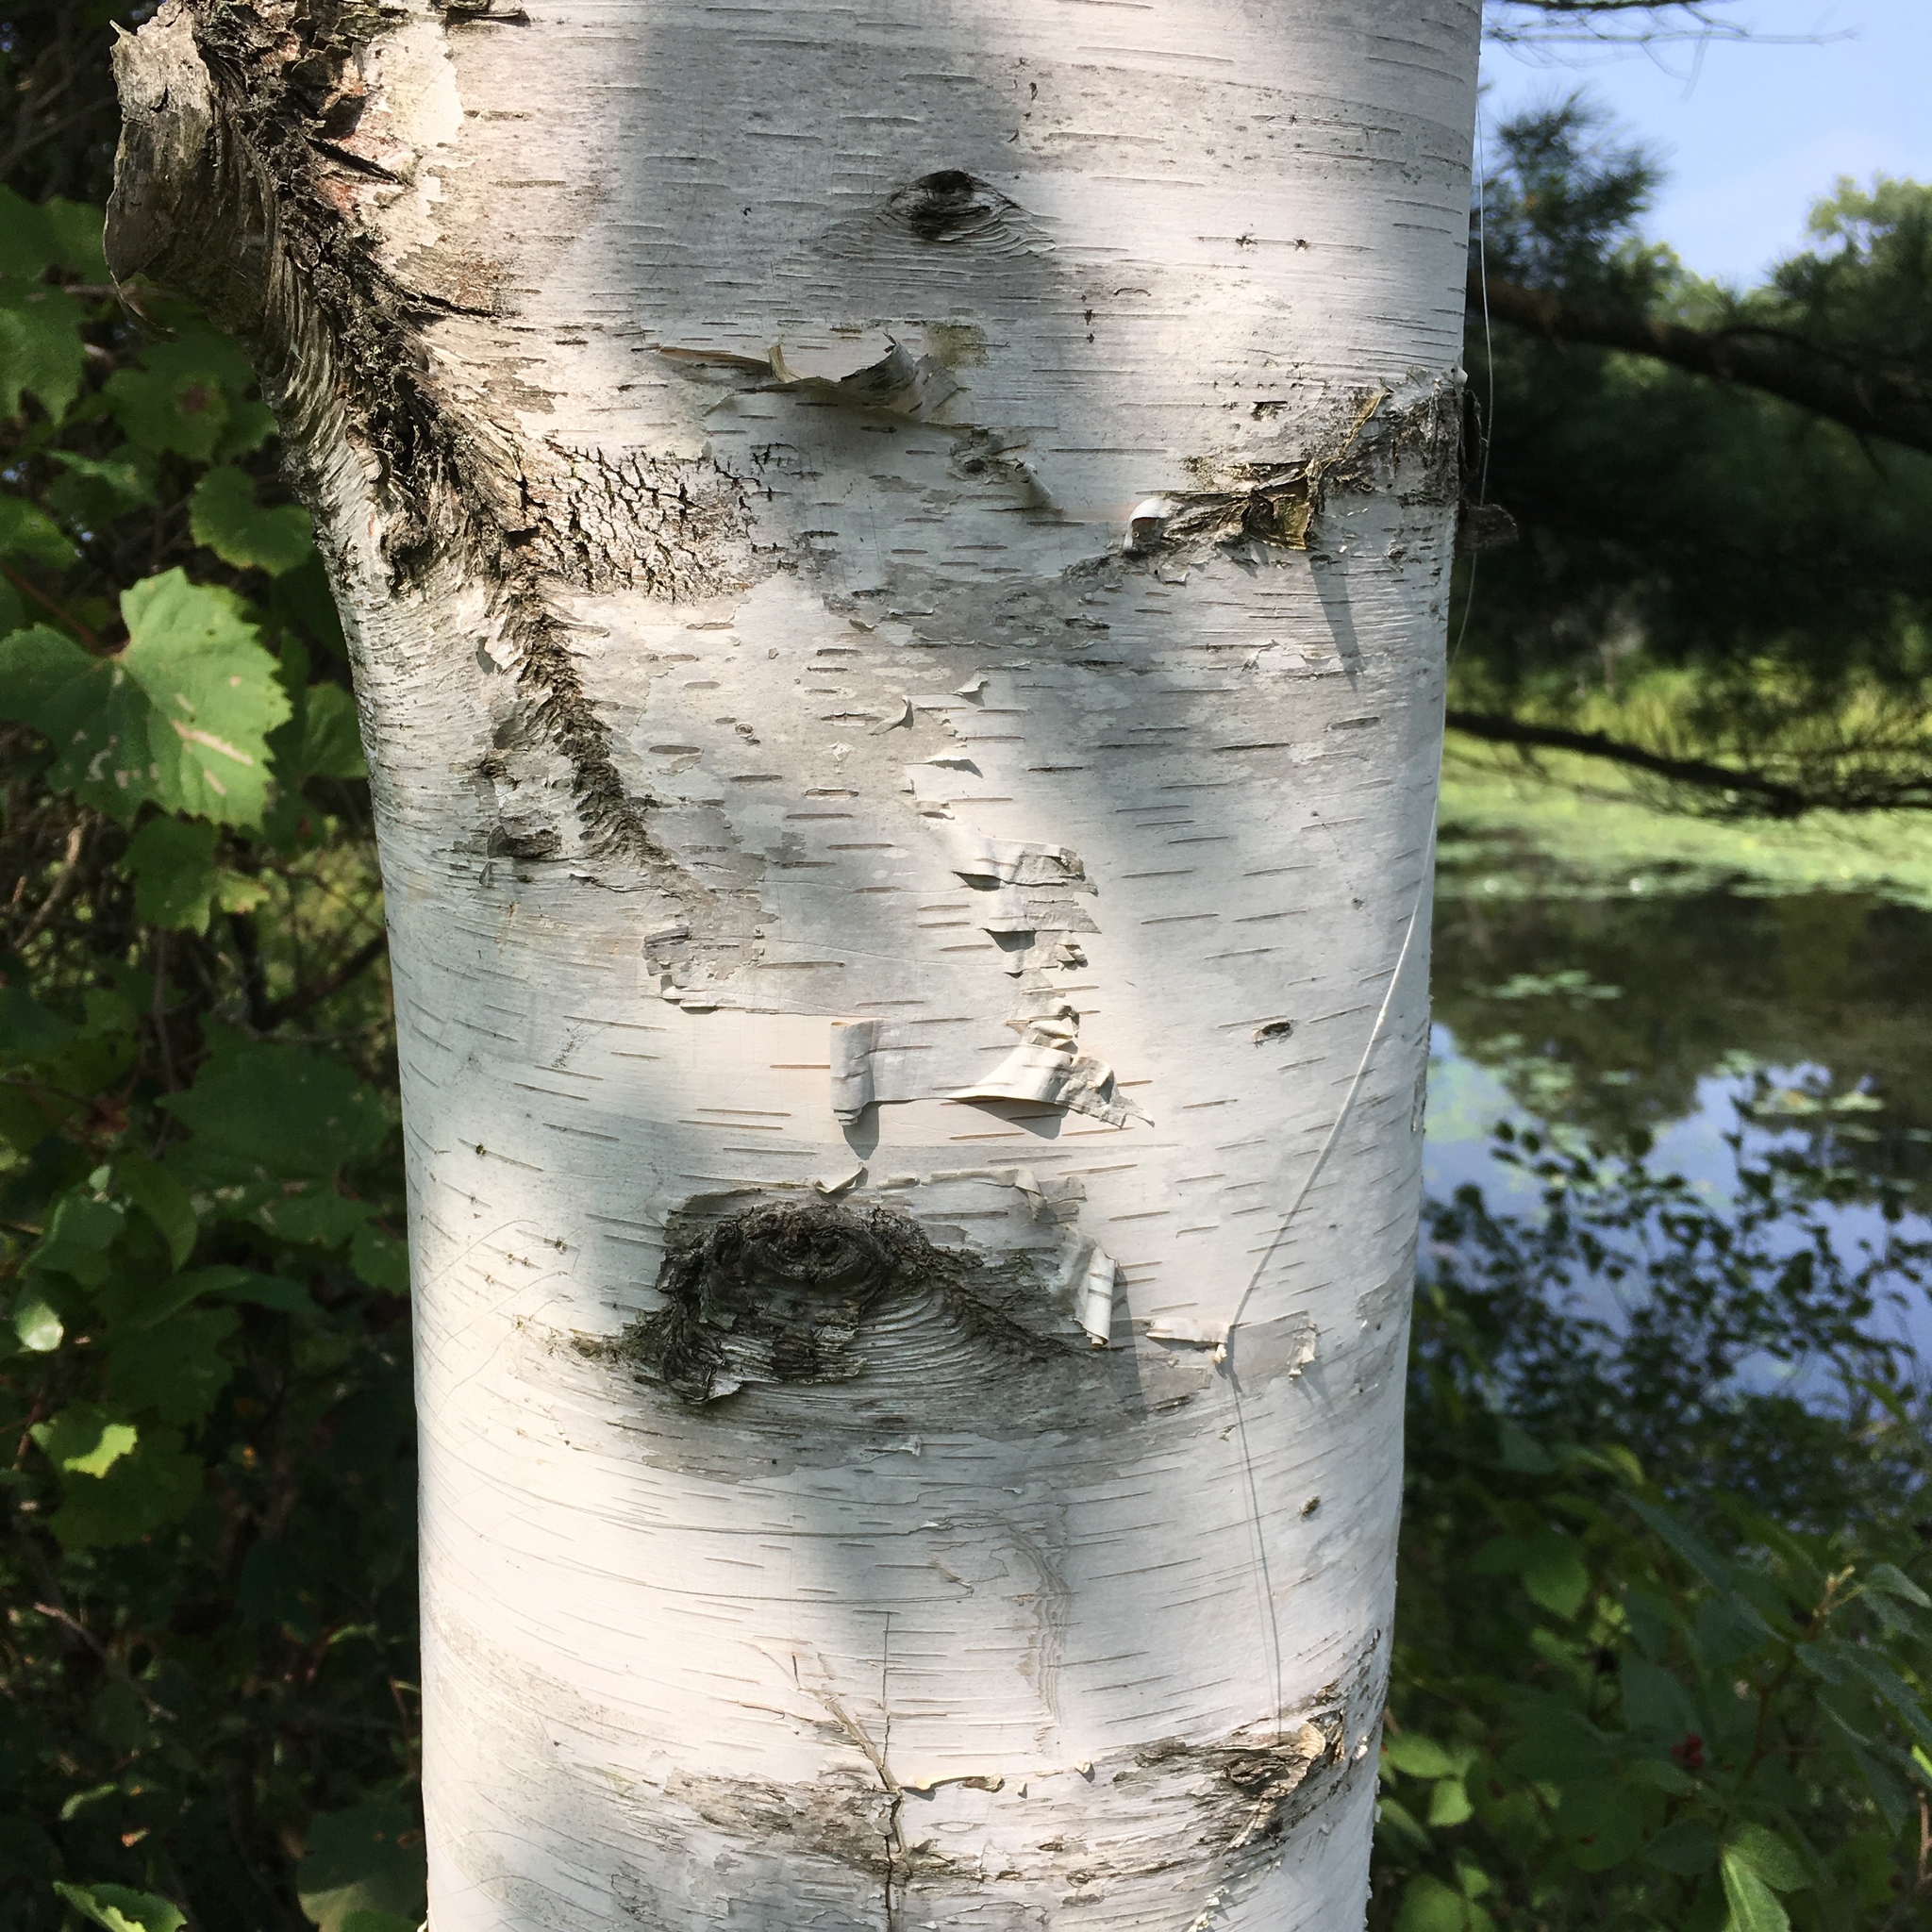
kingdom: Plantae
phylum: Tracheophyta
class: Magnoliopsida
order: Fagales
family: Betulaceae
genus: Betula
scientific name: Betula papyrifera
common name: Paper birch
